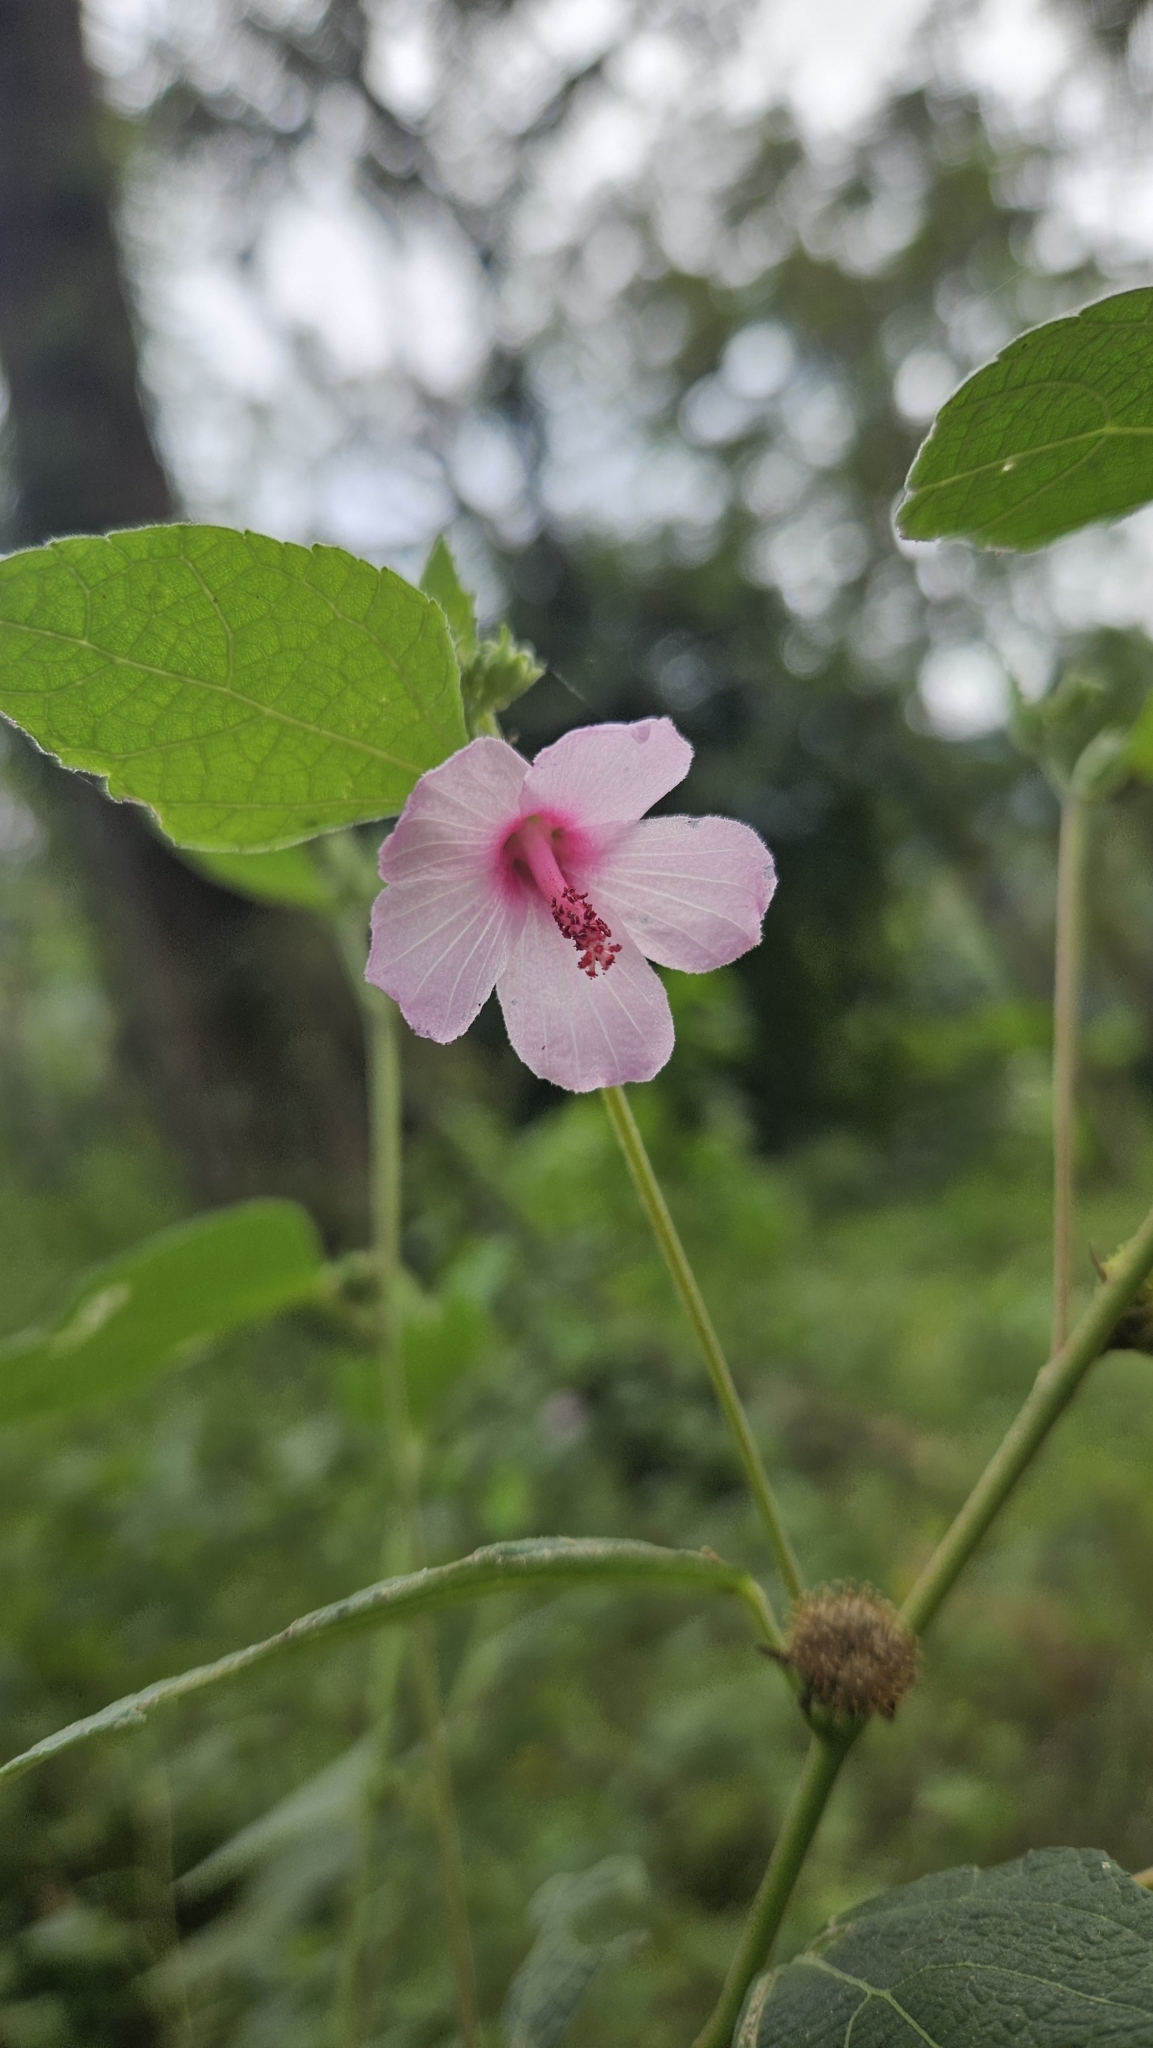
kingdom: Plantae
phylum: Tracheophyta
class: Magnoliopsida
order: Malvales
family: Malvaceae
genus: Urena
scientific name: Urena lobata
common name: Caesarweed
